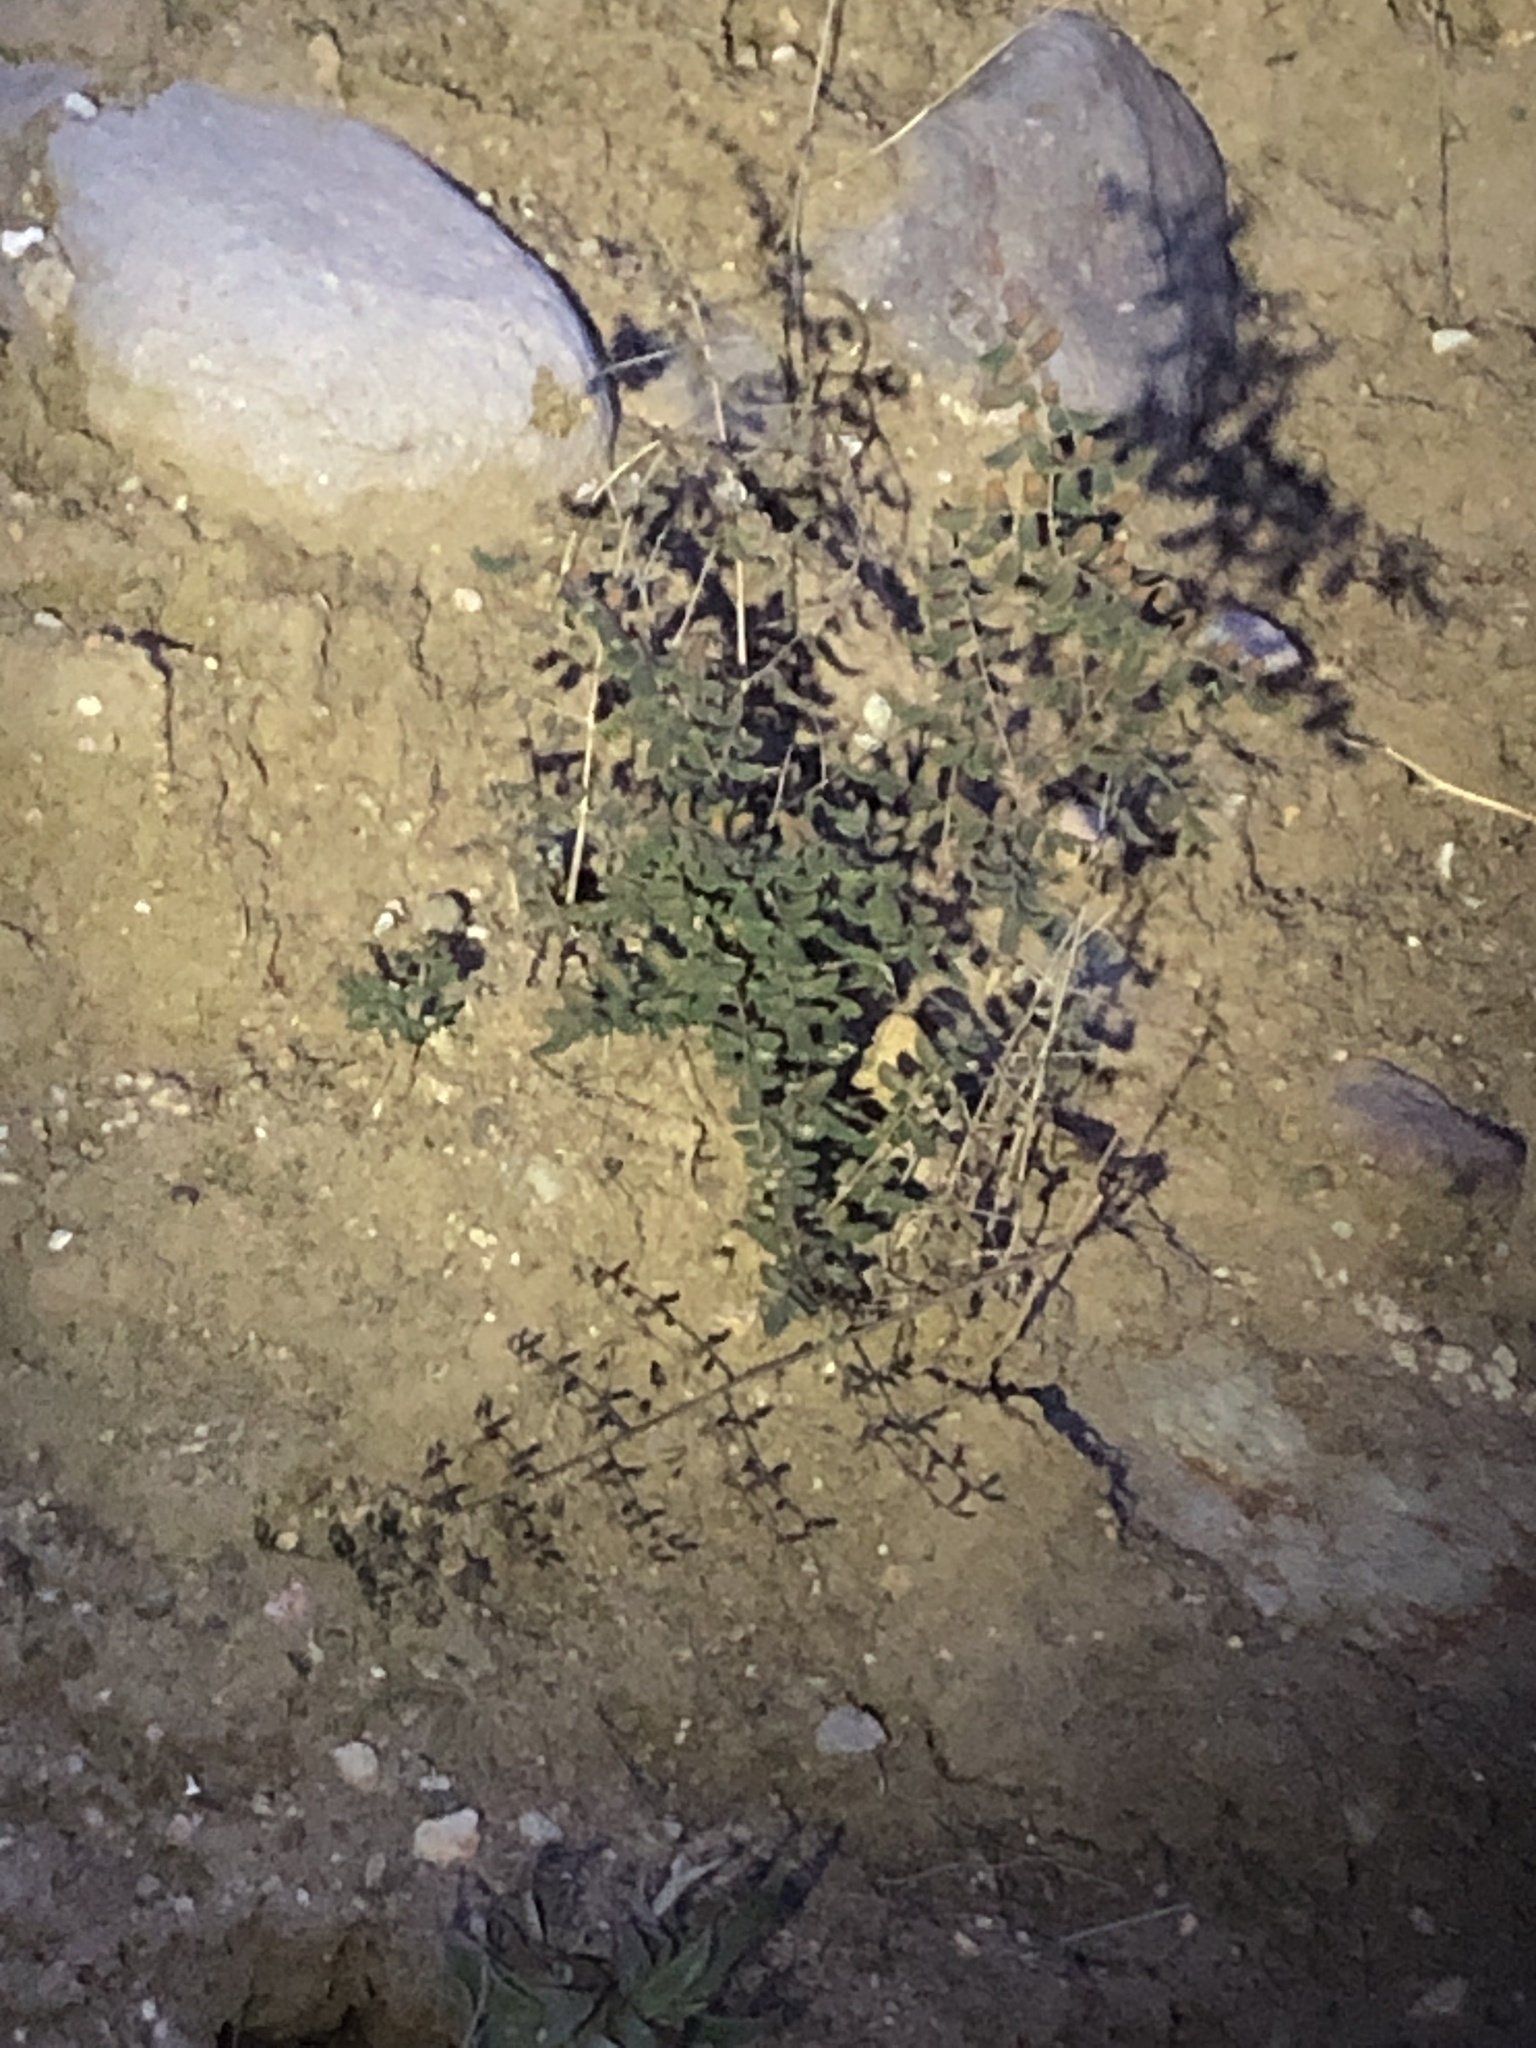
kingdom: Plantae
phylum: Tracheophyta
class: Polypodiopsida
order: Polypodiales
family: Pteridaceae
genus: Pellaea
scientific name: Pellaea andromedifolia
